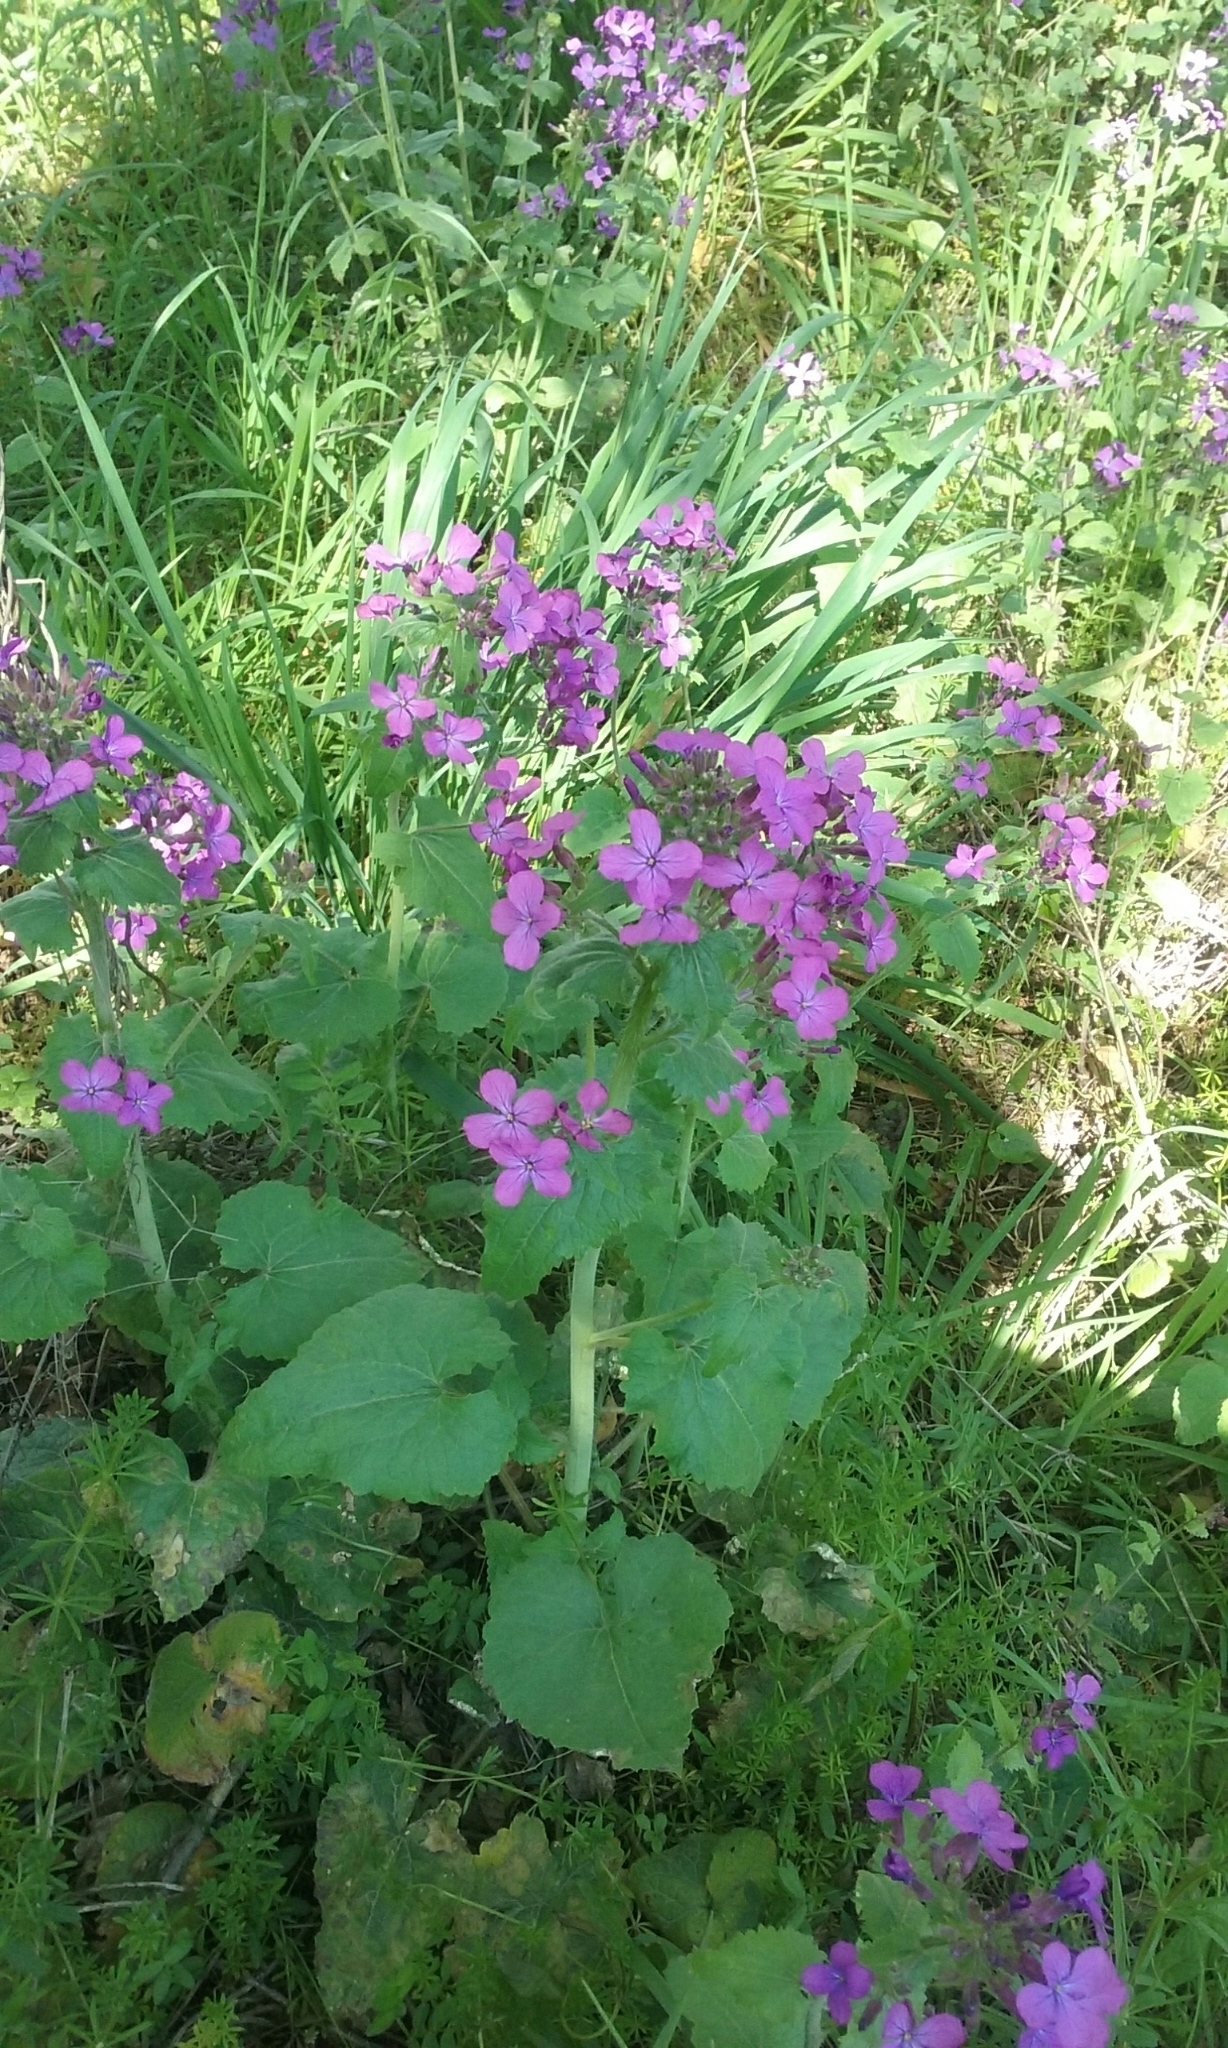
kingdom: Plantae
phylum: Tracheophyta
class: Magnoliopsida
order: Brassicales
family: Brassicaceae
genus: Lunaria
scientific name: Lunaria annua
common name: Honesty
